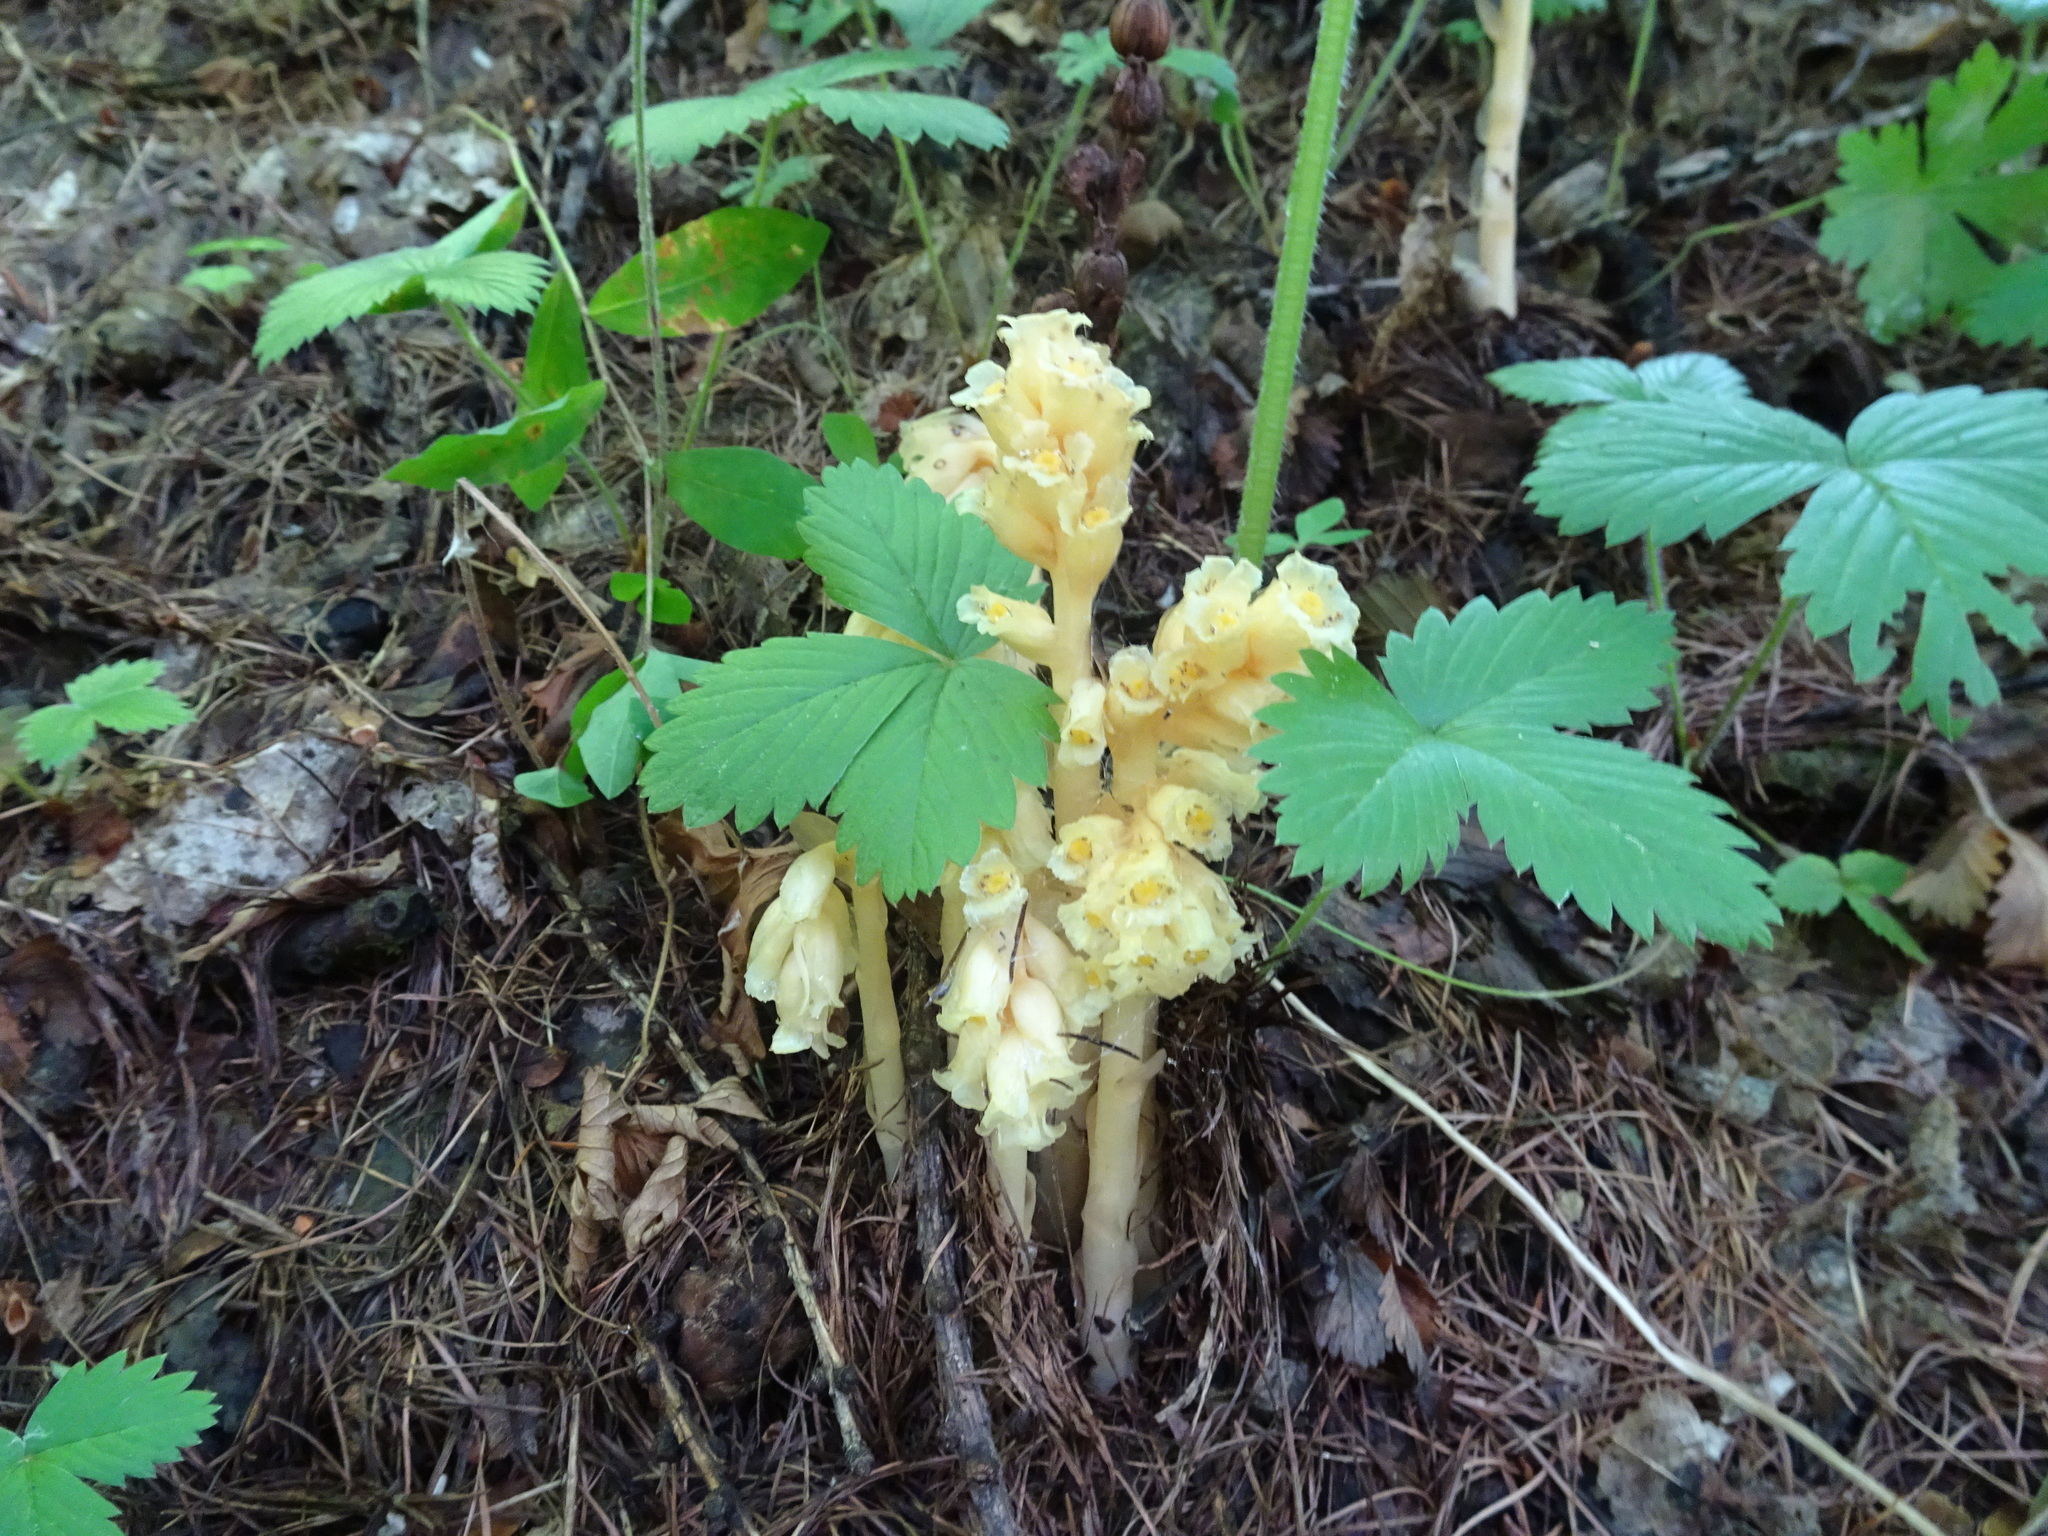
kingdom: Plantae
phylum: Tracheophyta
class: Magnoliopsida
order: Ericales
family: Ericaceae
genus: Hypopitys
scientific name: Hypopitys monotropa
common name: Yellow bird's-nest
